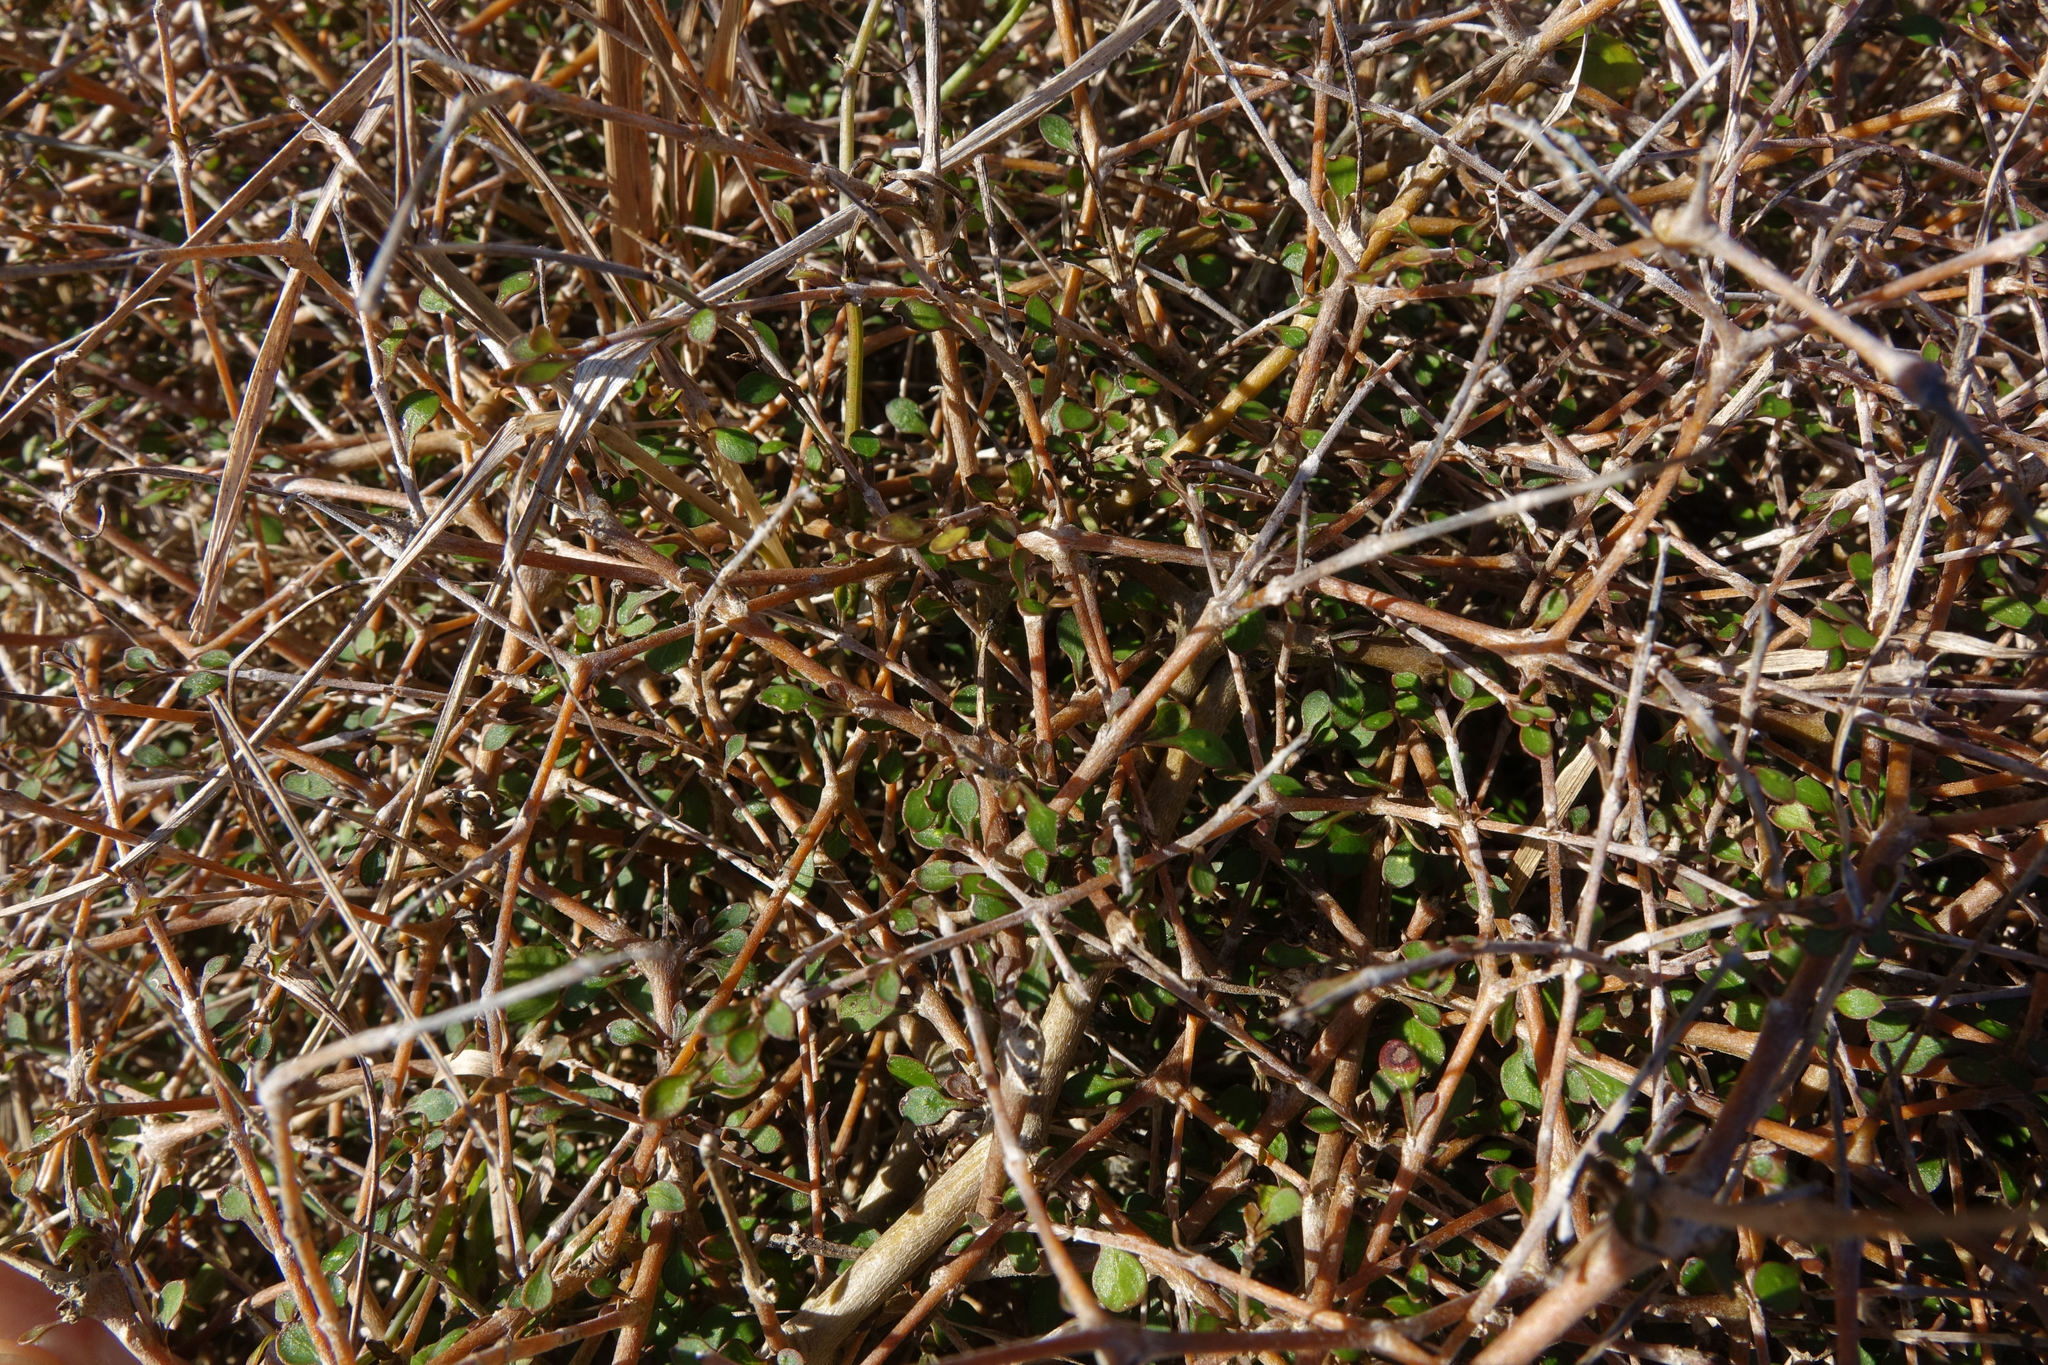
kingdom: Plantae
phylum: Tracheophyta
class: Magnoliopsida
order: Gentianales
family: Rubiaceae
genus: Coprosma
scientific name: Coprosma virescens
